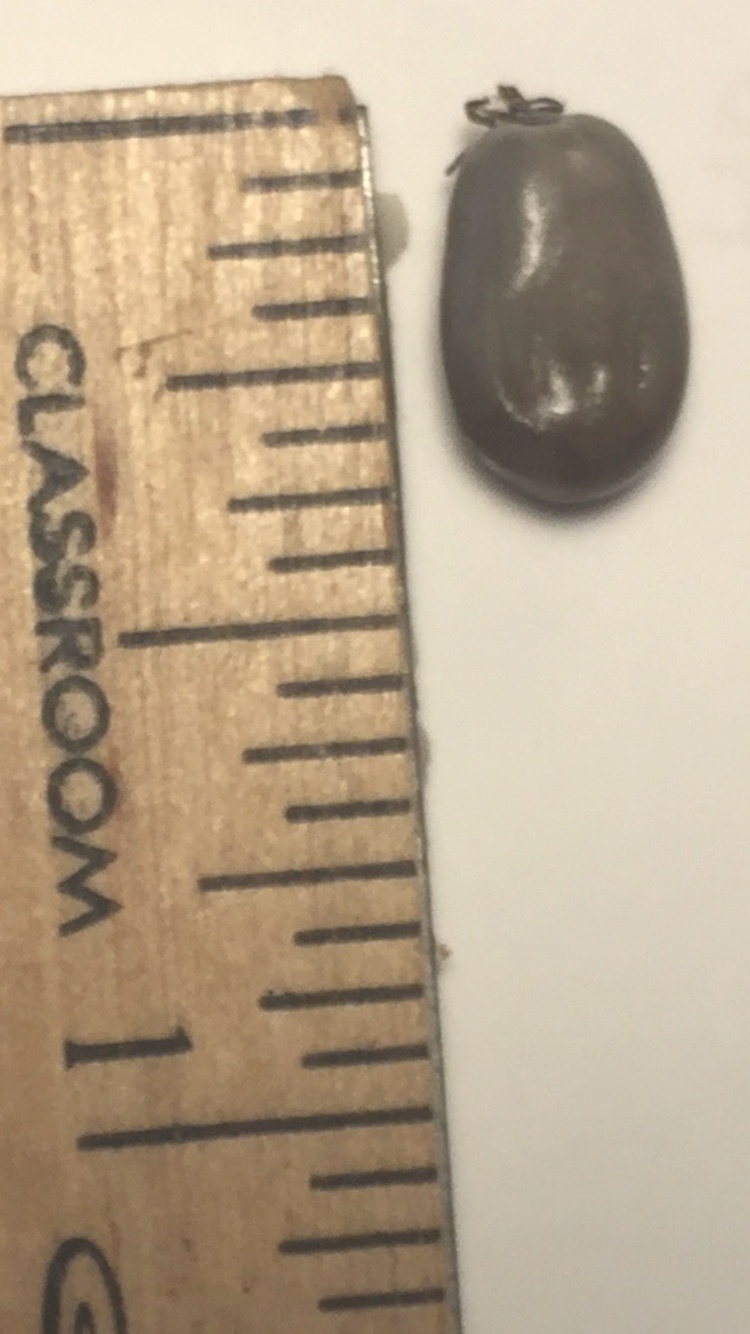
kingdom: Animalia
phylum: Arthropoda
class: Arachnida
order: Ixodida
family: Ixodidae
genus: Ixodes
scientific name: Ixodes scapularis
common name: Black legged tick
